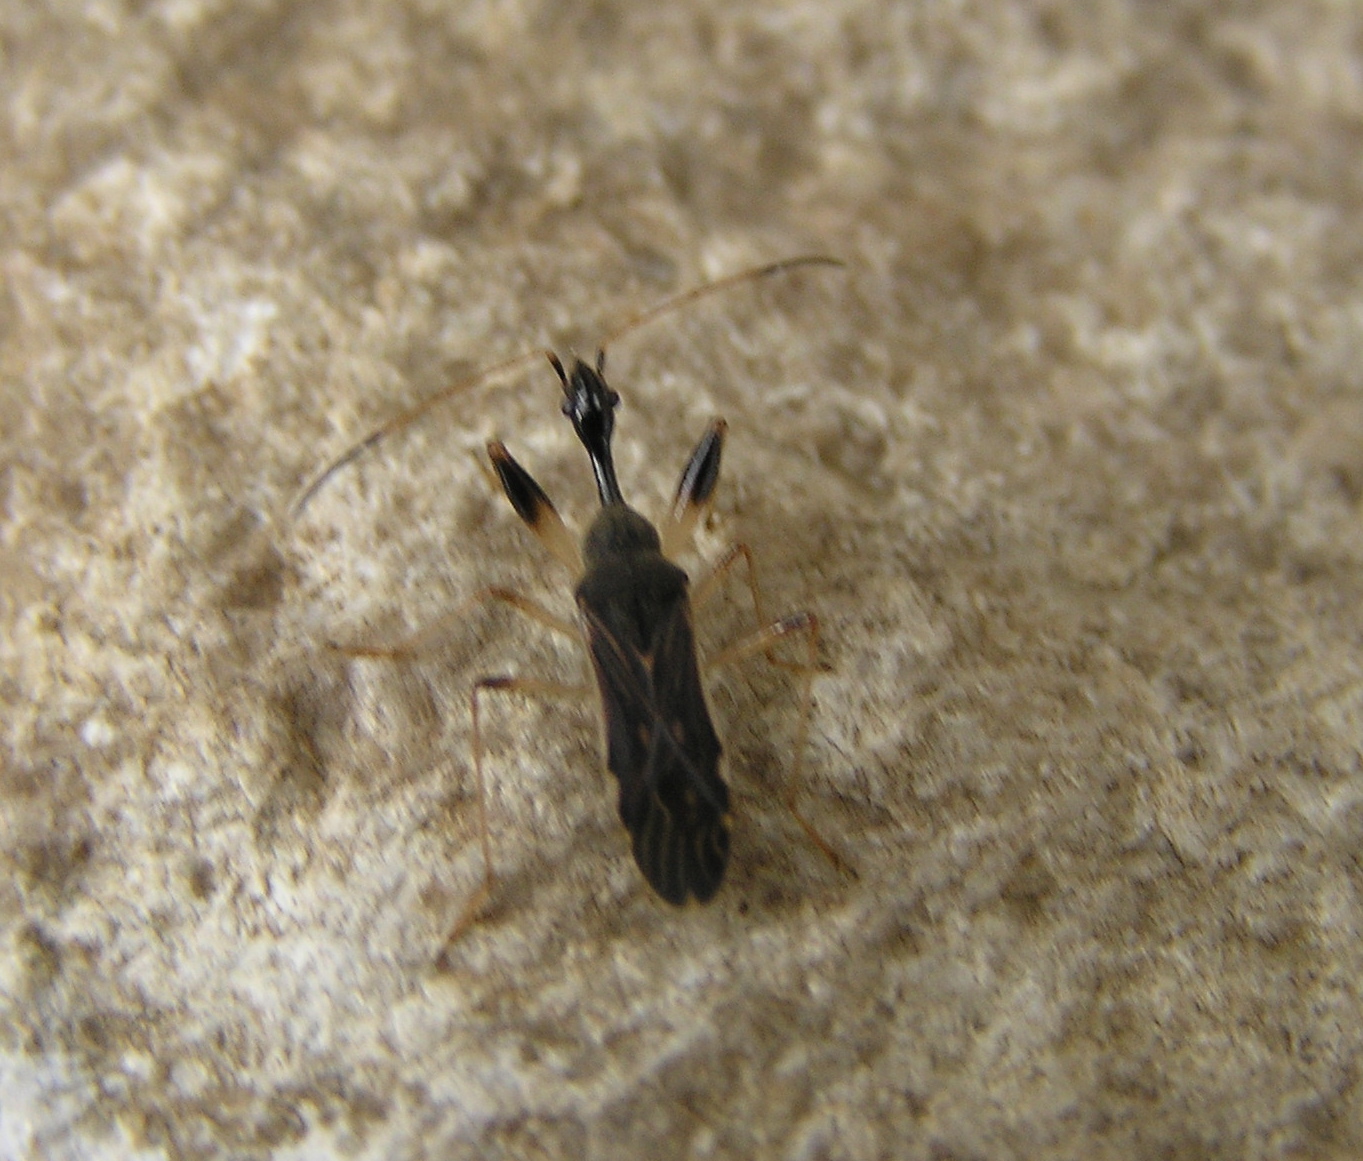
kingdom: Animalia
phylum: Arthropoda
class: Insecta
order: Hemiptera
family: Rhyparochromidae
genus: Myodocha
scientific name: Myodocha serripes
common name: Long-necked seed bug
